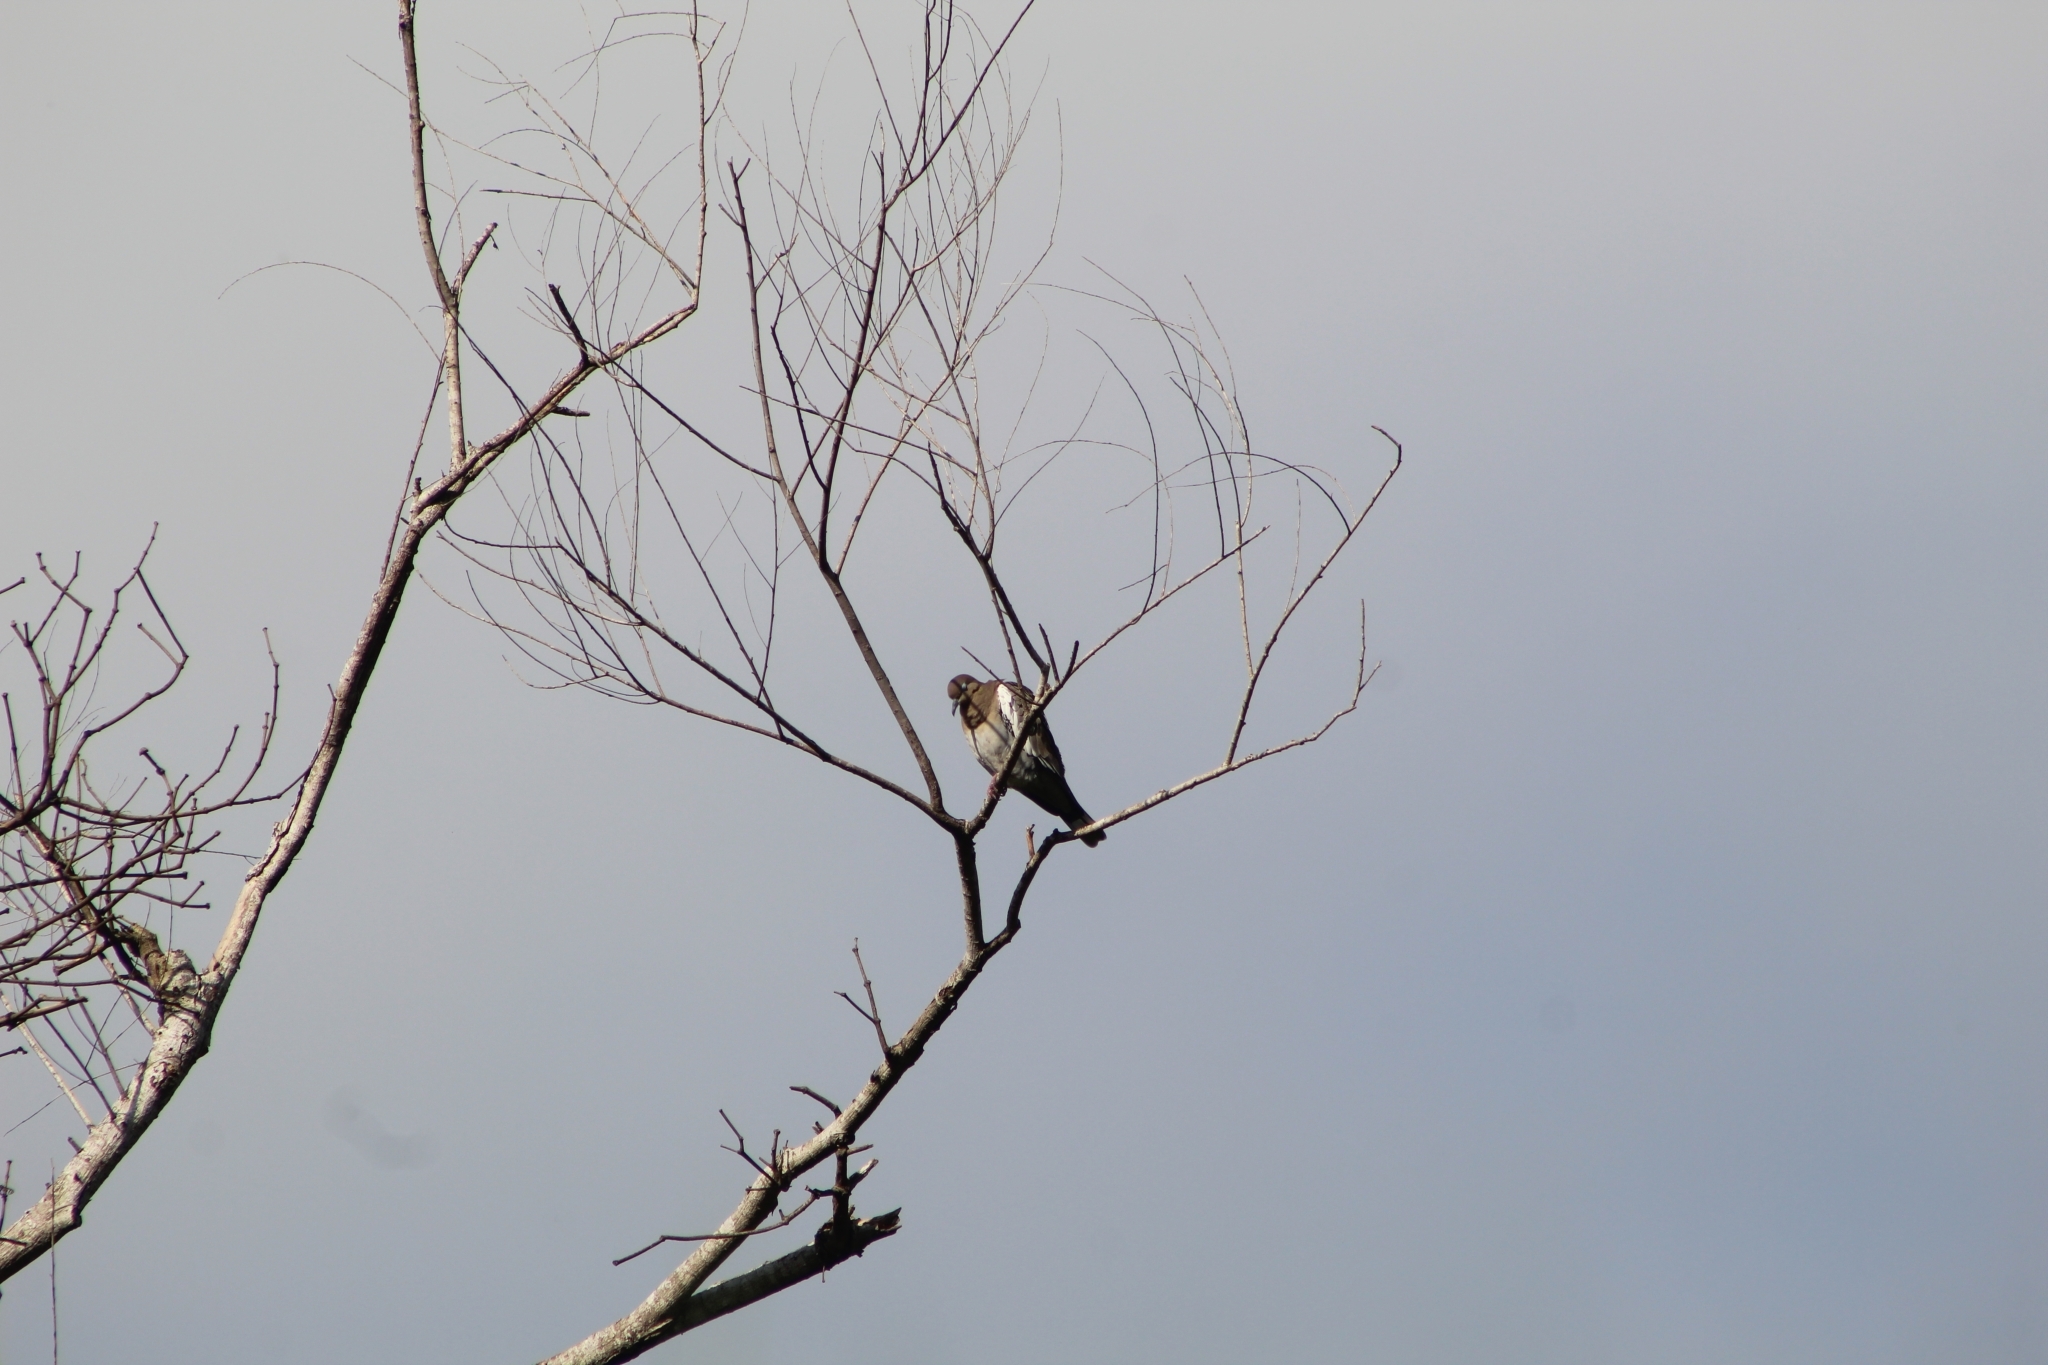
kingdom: Animalia
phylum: Chordata
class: Aves
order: Columbiformes
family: Columbidae
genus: Zenaida
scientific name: Zenaida asiatica
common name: White-winged dove
